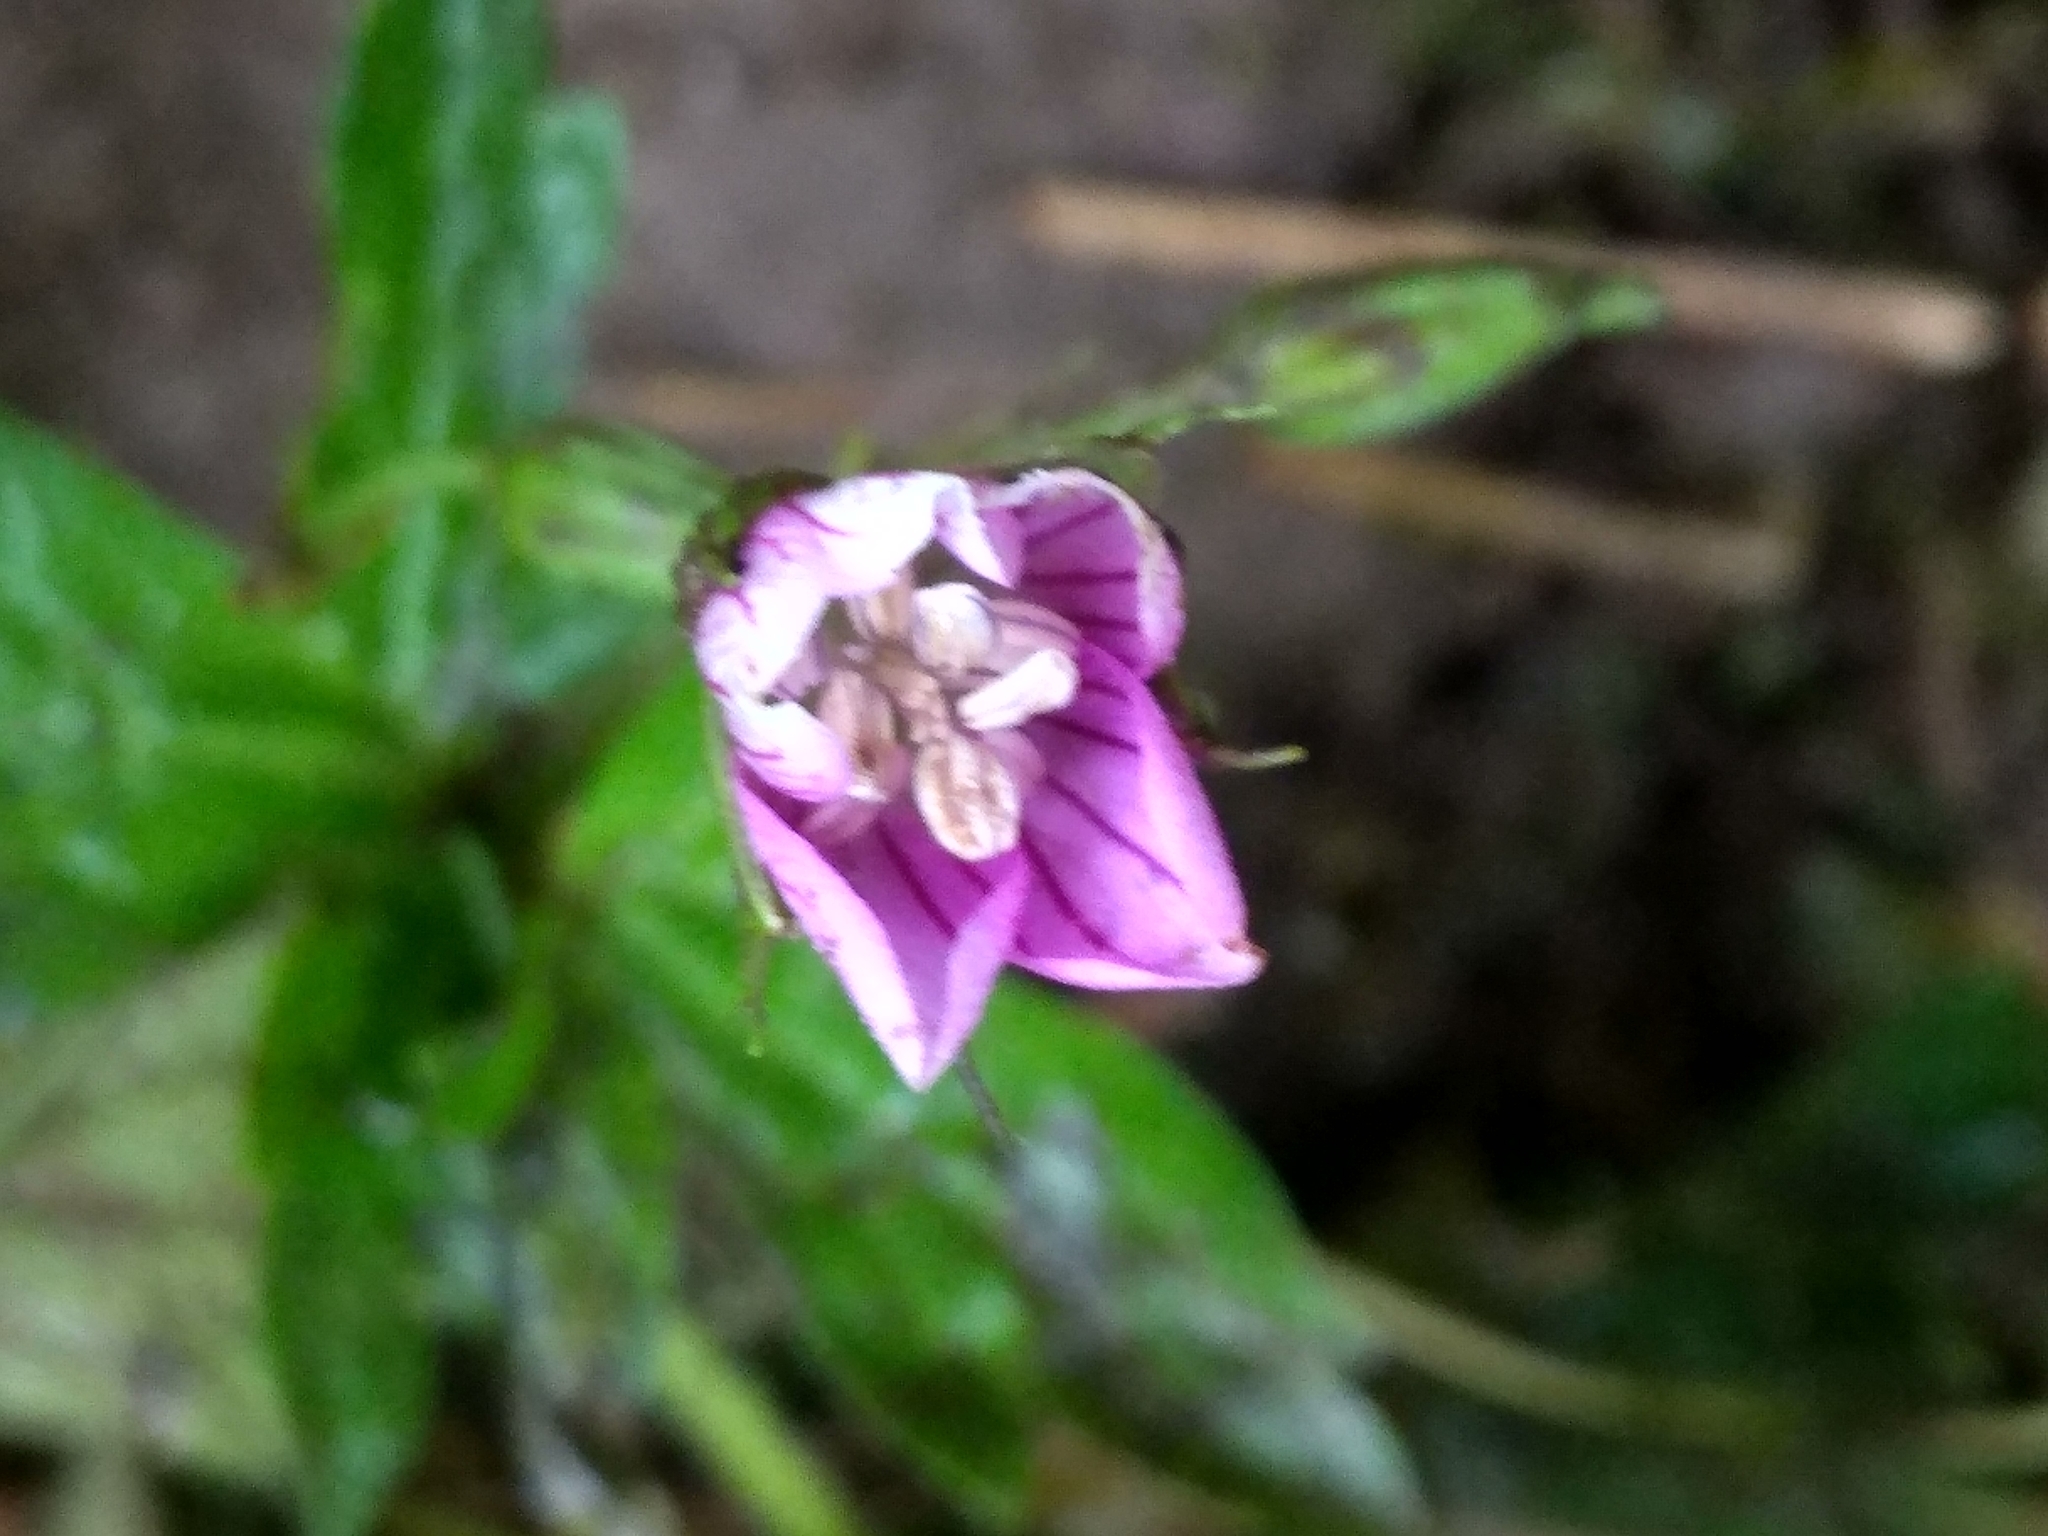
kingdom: Plantae
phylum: Tracheophyta
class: Magnoliopsida
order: Geraniales
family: Geraniaceae
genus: Geranium
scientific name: Geranium palustre
